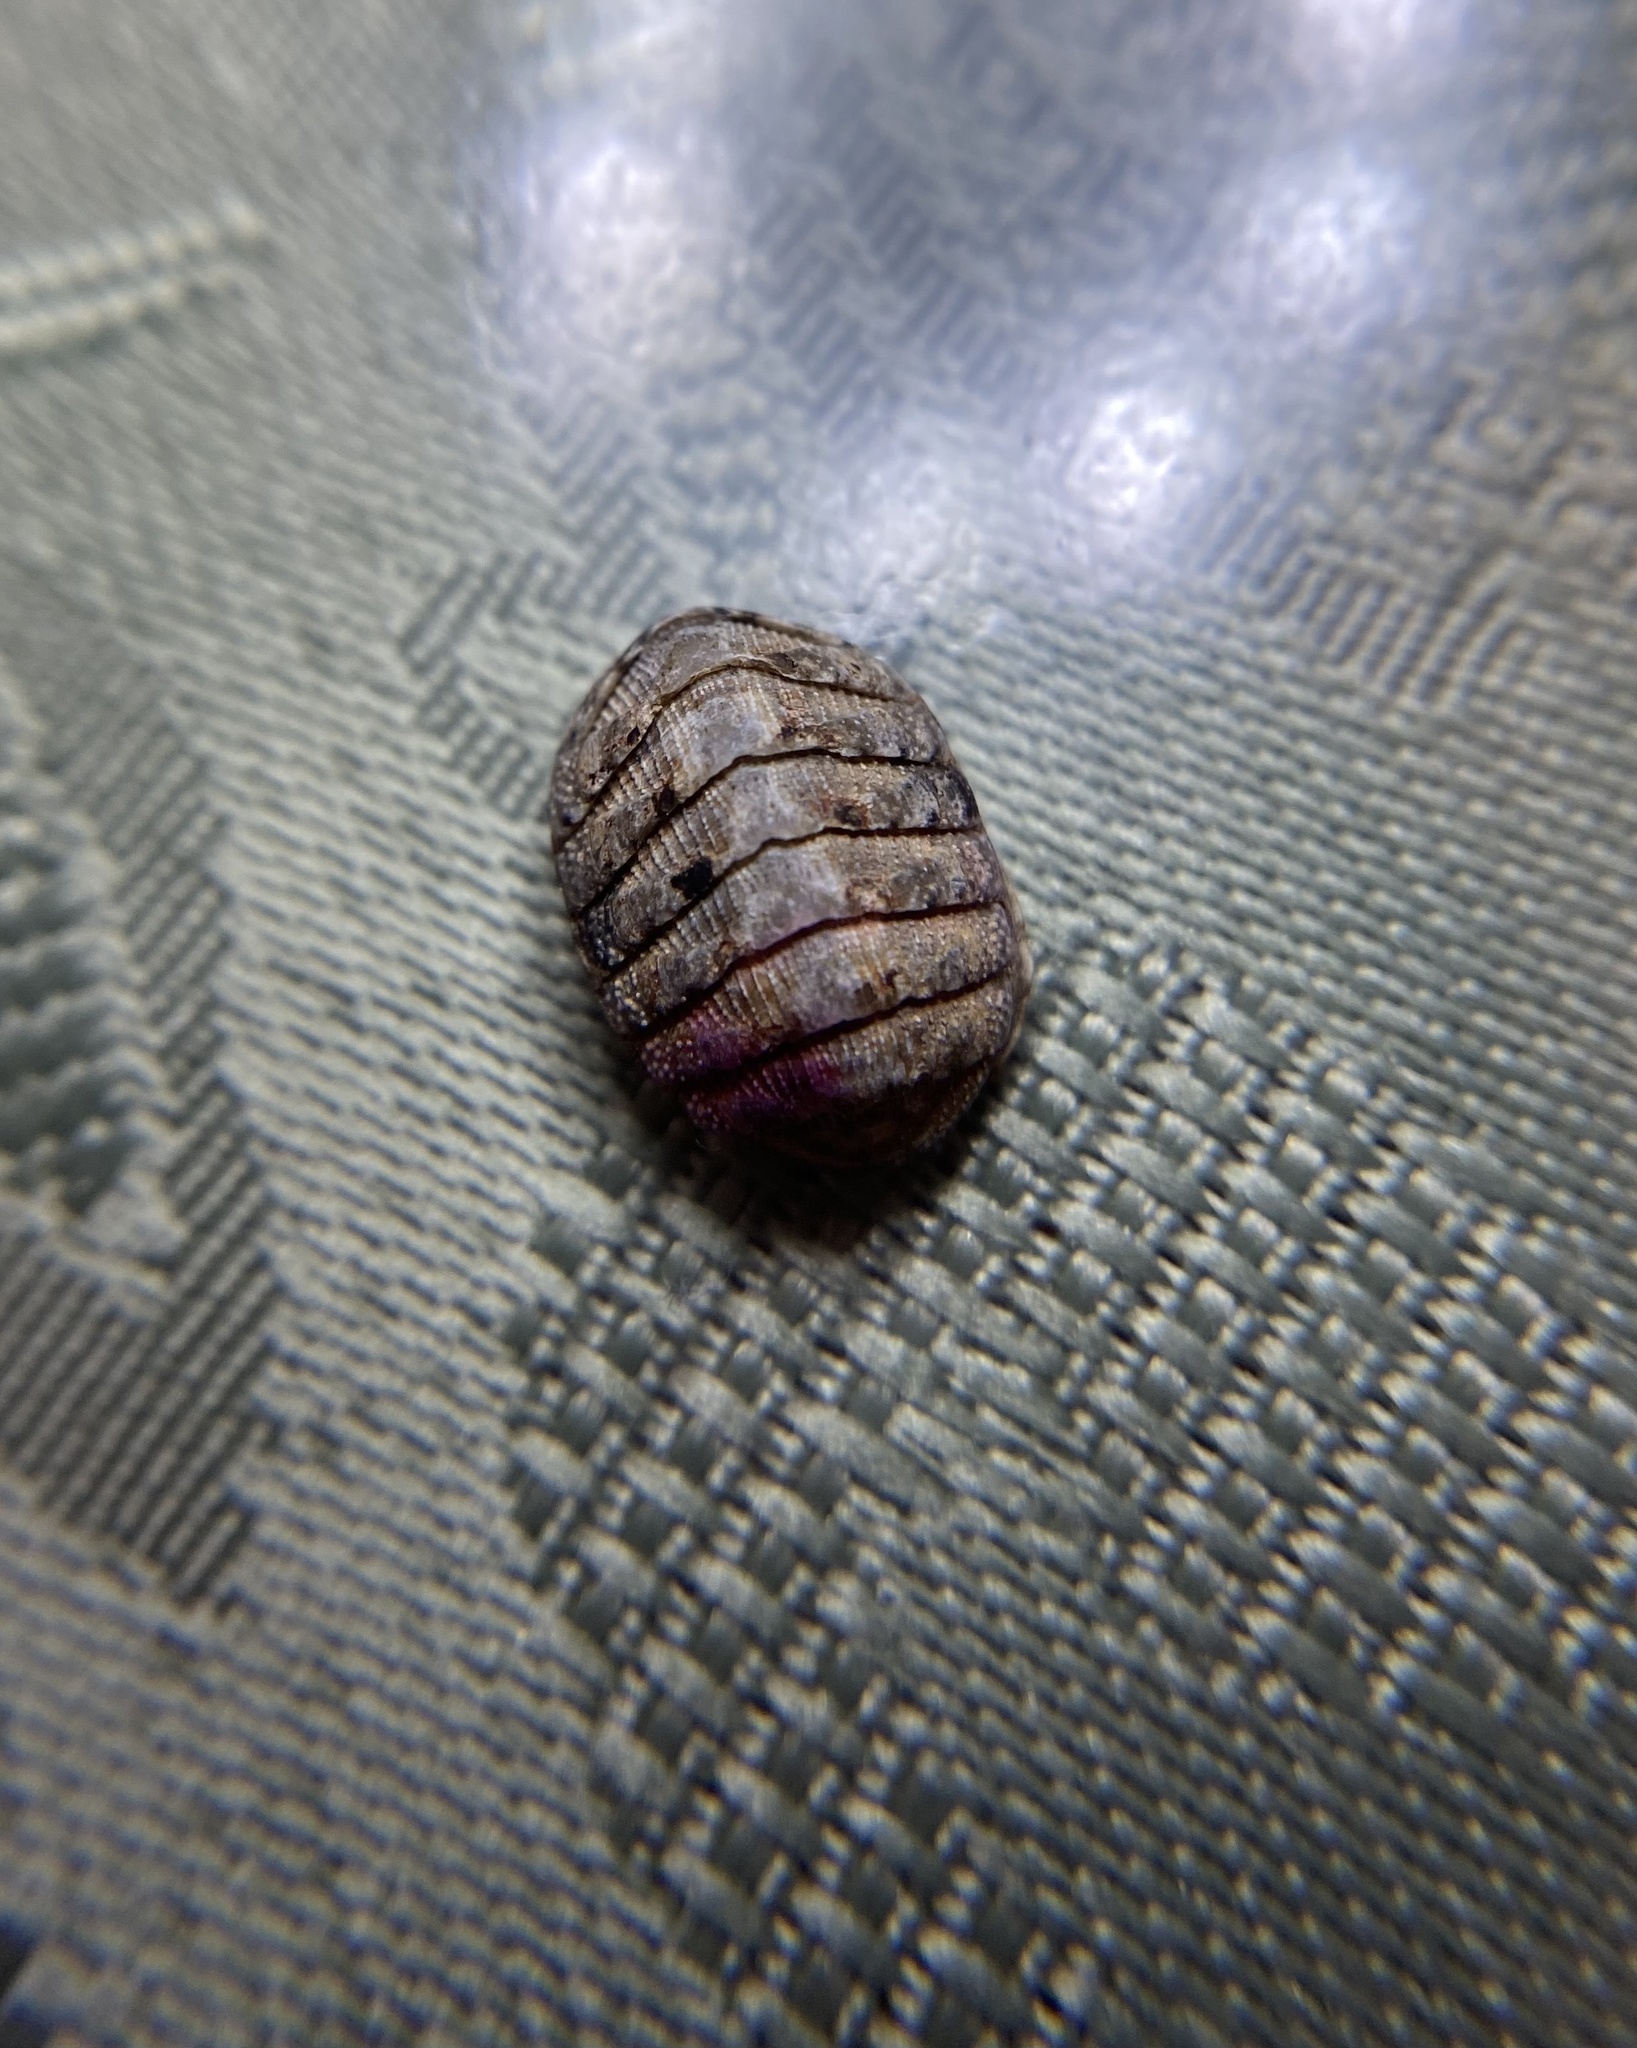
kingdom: Animalia
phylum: Mollusca
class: Polyplacophora
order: Chitonida
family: Chaetopleuridae
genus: Chaetopleura
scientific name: Chaetopleura apiculata
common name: Bee chiton
